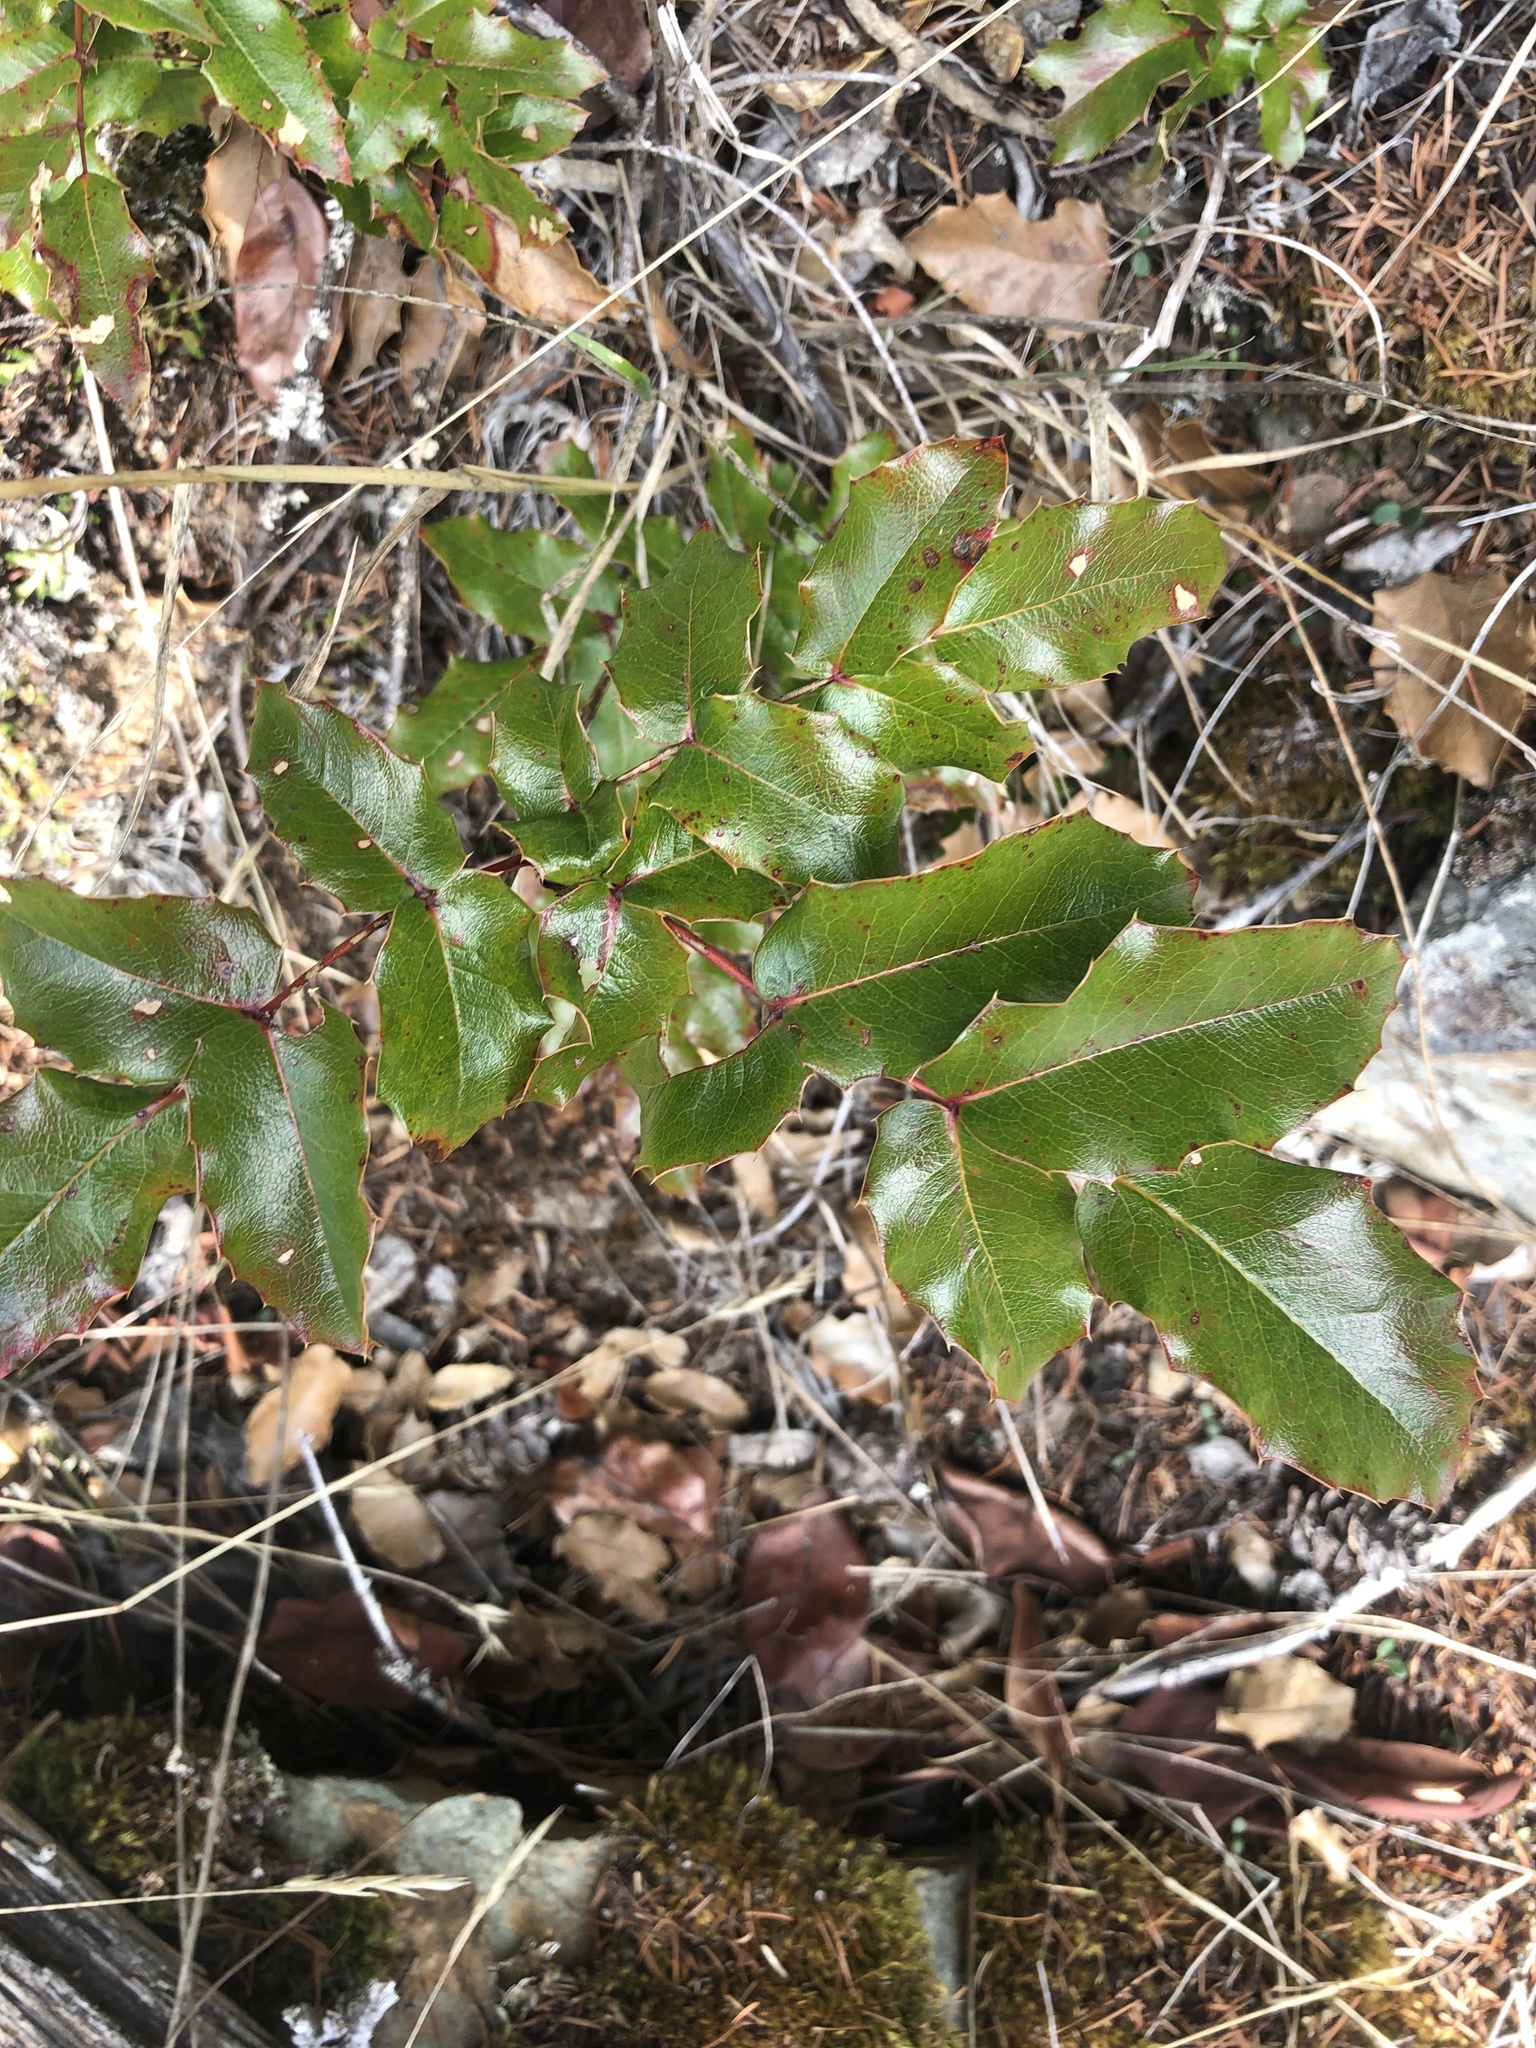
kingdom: Plantae
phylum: Tracheophyta
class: Magnoliopsida
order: Ranunculales
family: Berberidaceae
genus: Mahonia
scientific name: Mahonia aquifolium
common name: Oregon-grape
